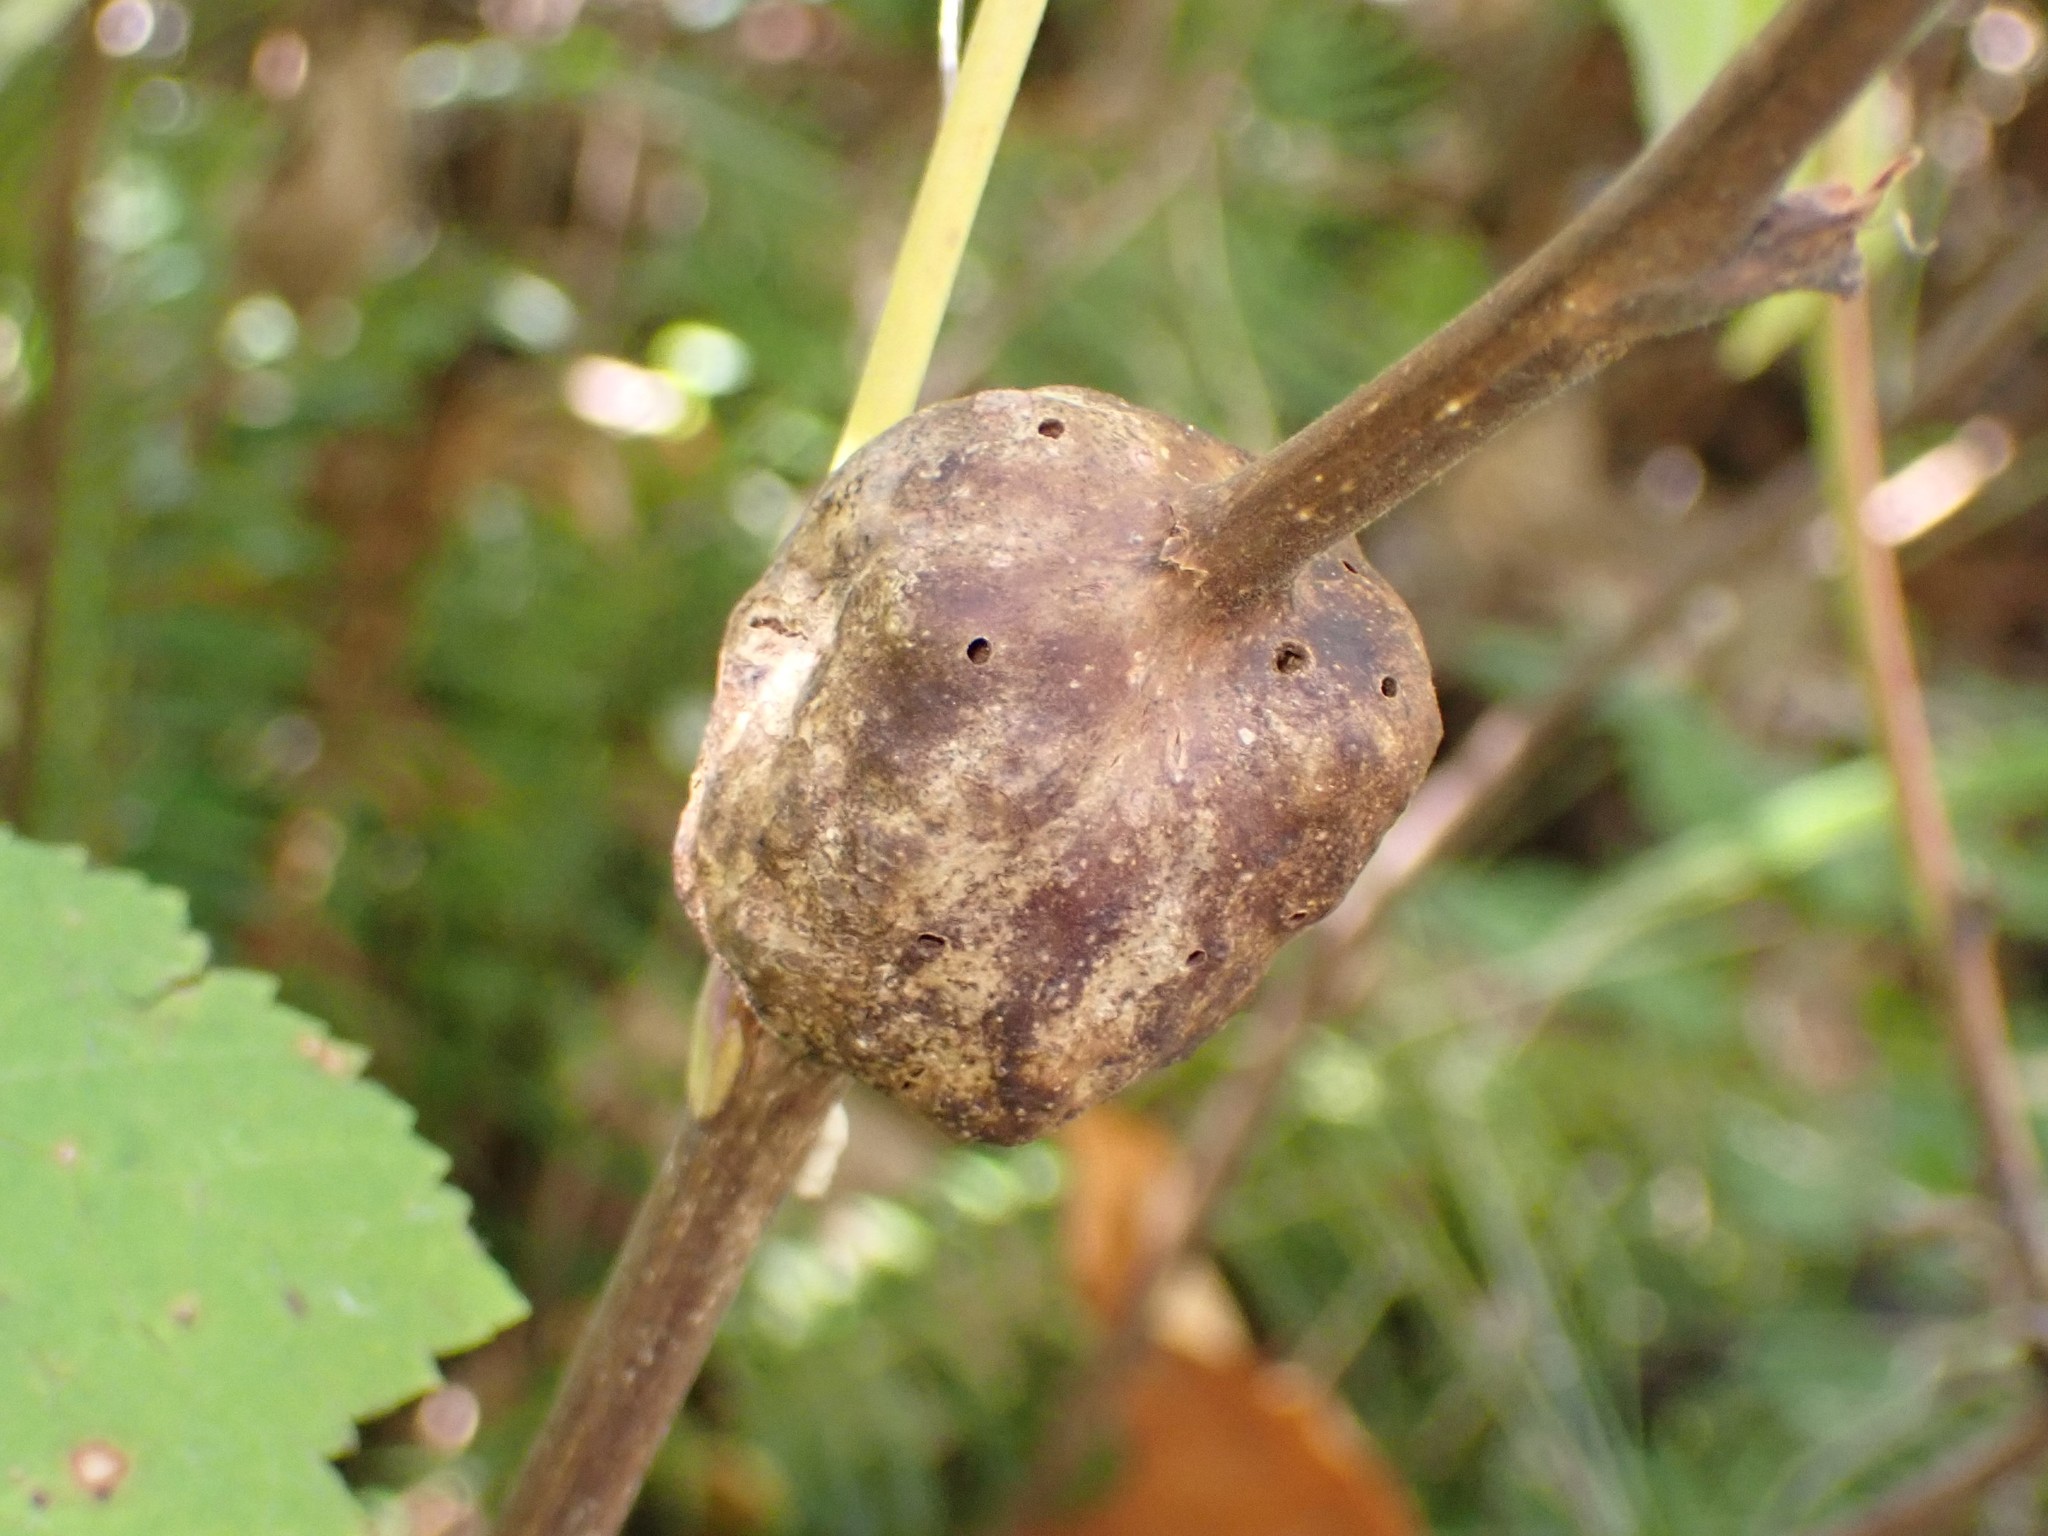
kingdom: Animalia
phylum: Arthropoda
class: Insecta
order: Hymenoptera
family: Cynipidae
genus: Diastrophus
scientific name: Diastrophus
